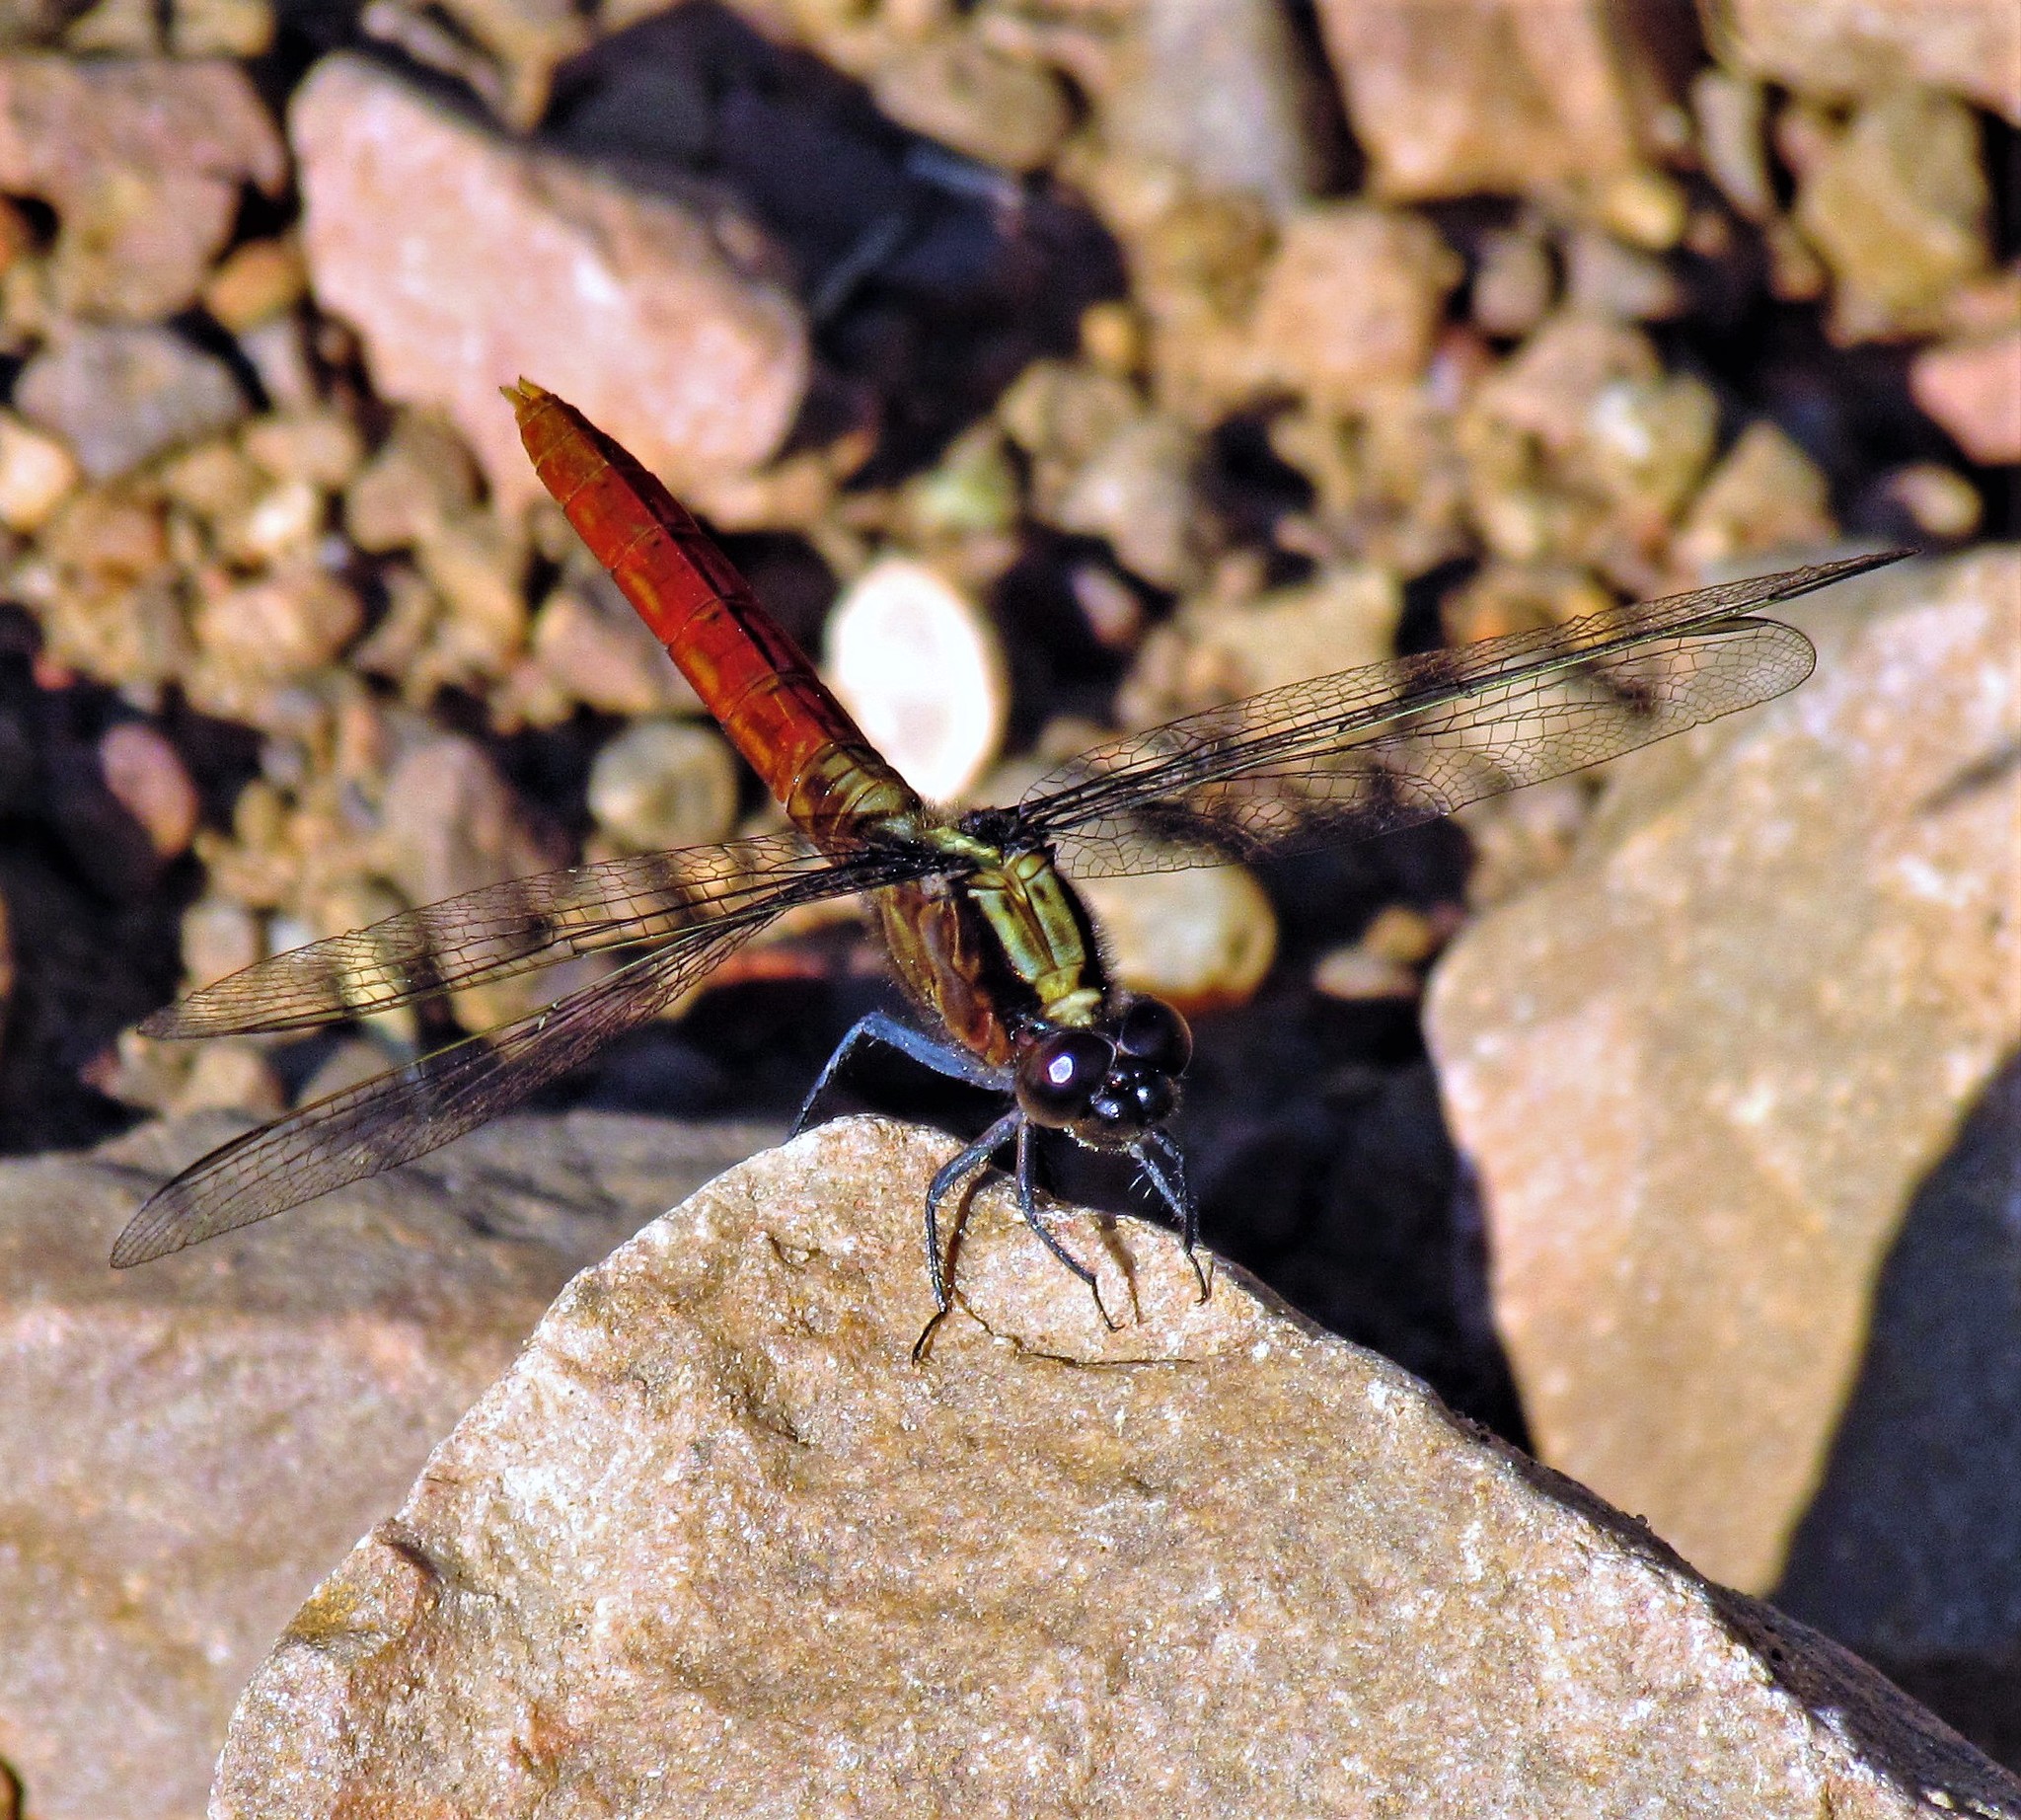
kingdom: Animalia
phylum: Arthropoda
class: Insecta
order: Odonata
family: Libellulidae
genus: Erythemis
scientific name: Erythemis peruviana
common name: Flame-tailed pondhawk
